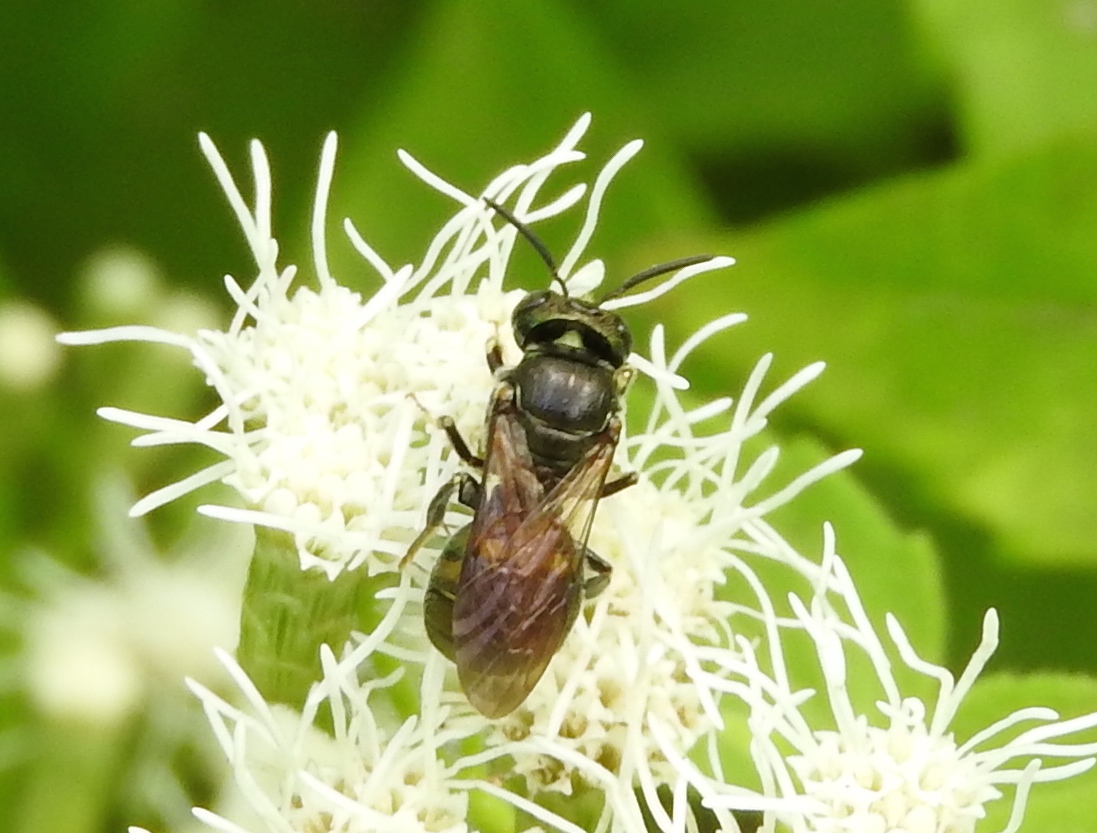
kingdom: Animalia
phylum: Arthropoda
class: Insecta
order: Hymenoptera
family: Apidae
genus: Ceratina
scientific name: Ceratina
